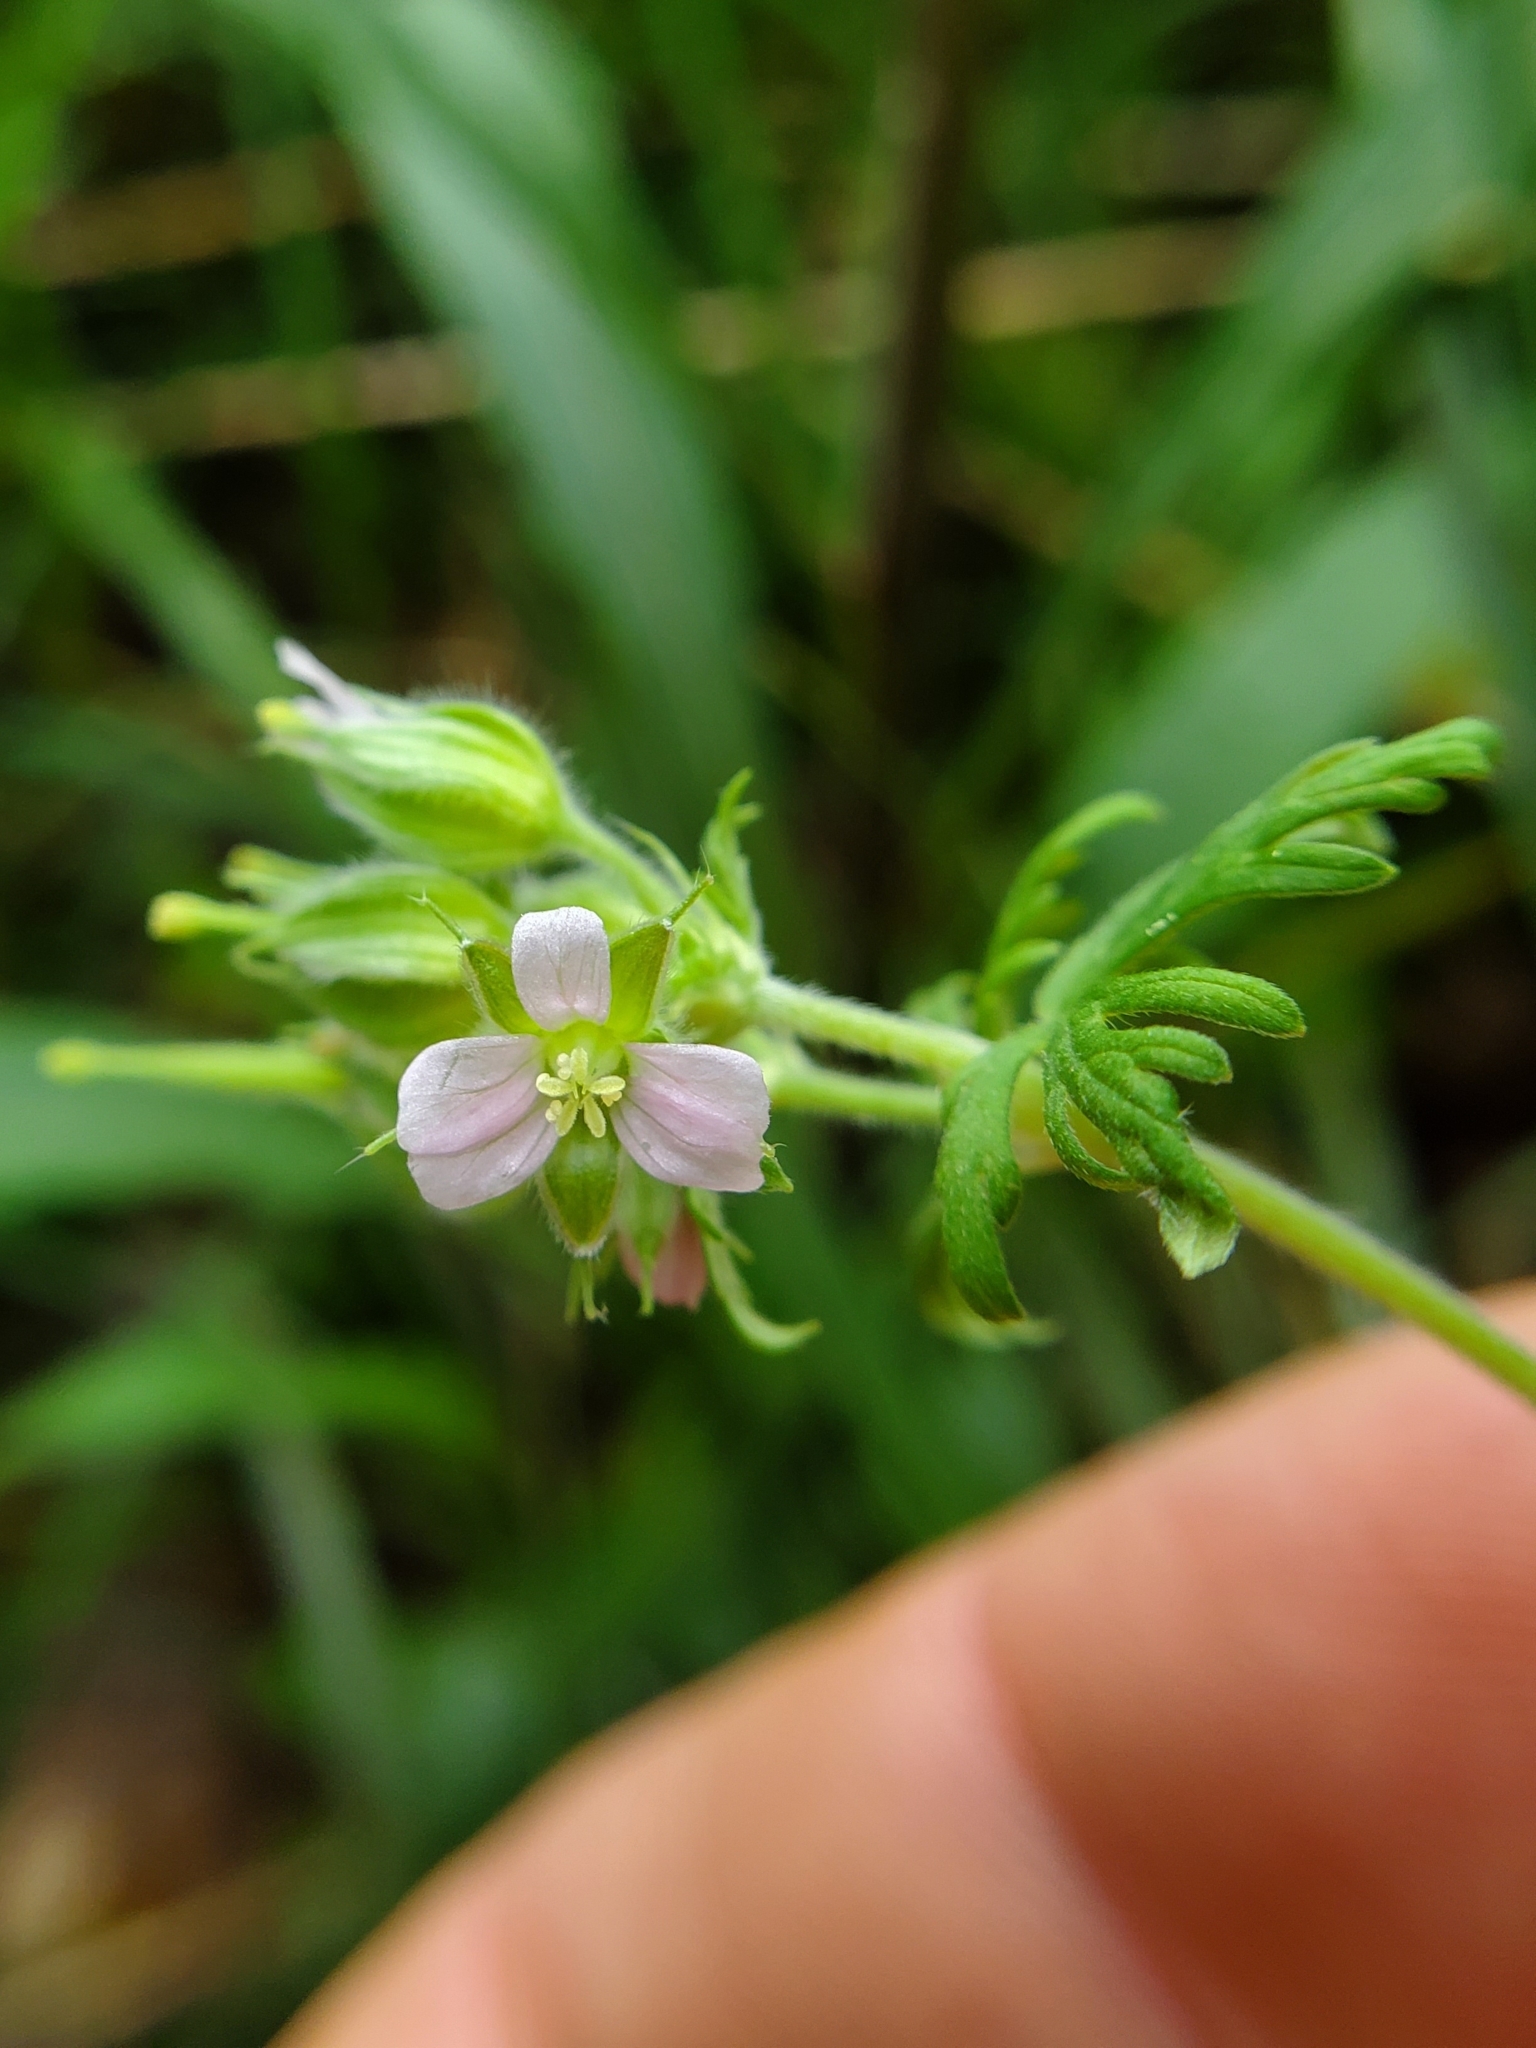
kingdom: Plantae
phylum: Tracheophyta
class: Magnoliopsida
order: Geraniales
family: Geraniaceae
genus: Geranium
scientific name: Geranium carolinianum
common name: Carolina crane's-bill
